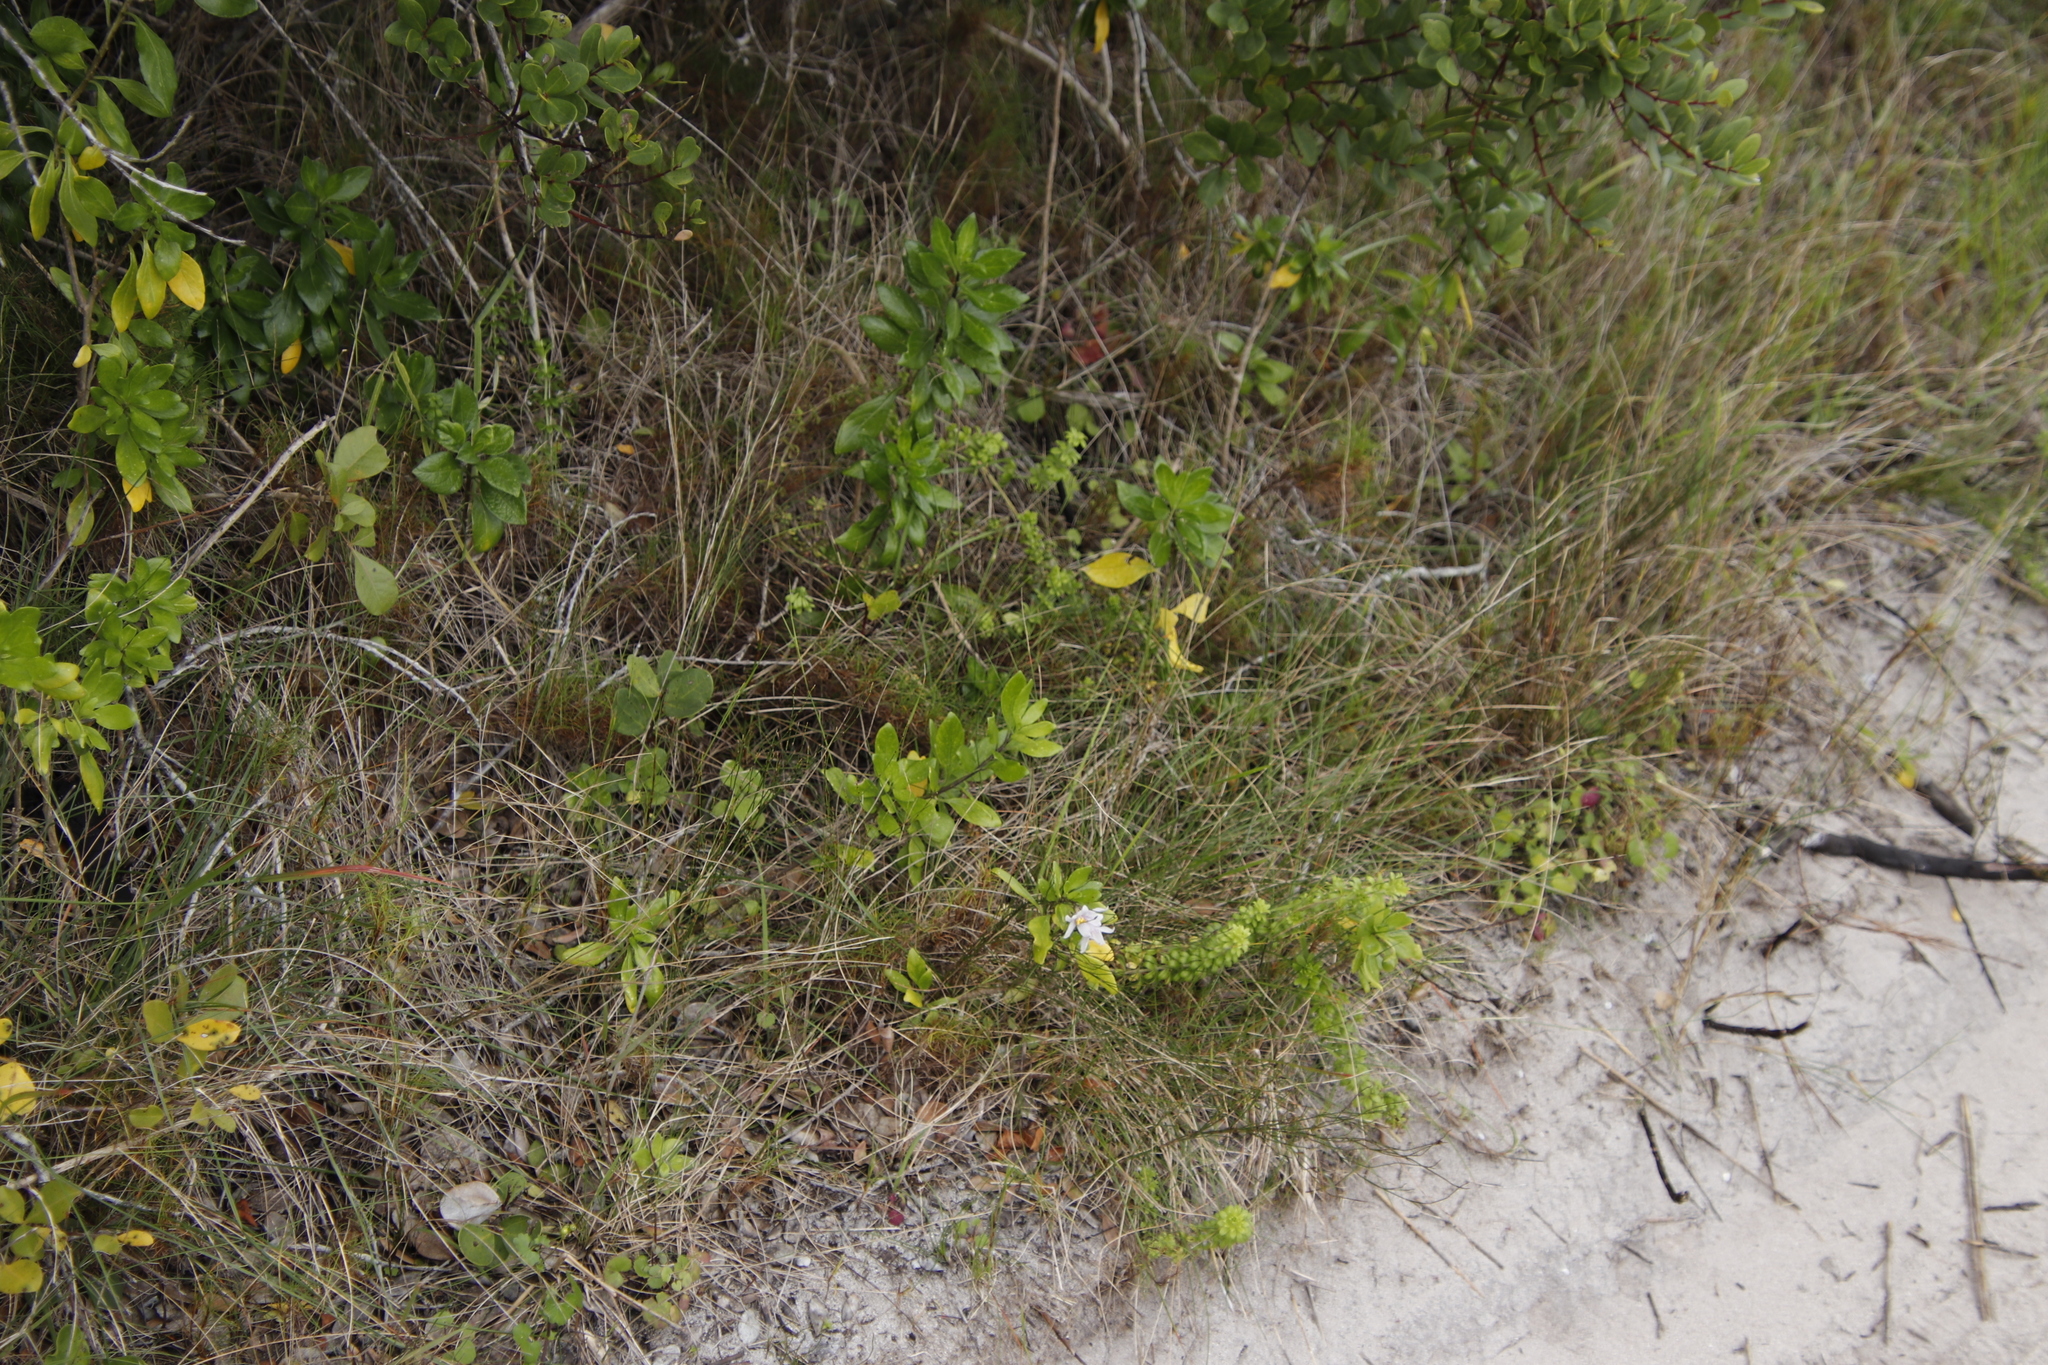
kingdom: Plantae
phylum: Tracheophyta
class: Magnoliopsida
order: Solanales
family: Solanaceae
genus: Solanum
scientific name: Solanum guineense
